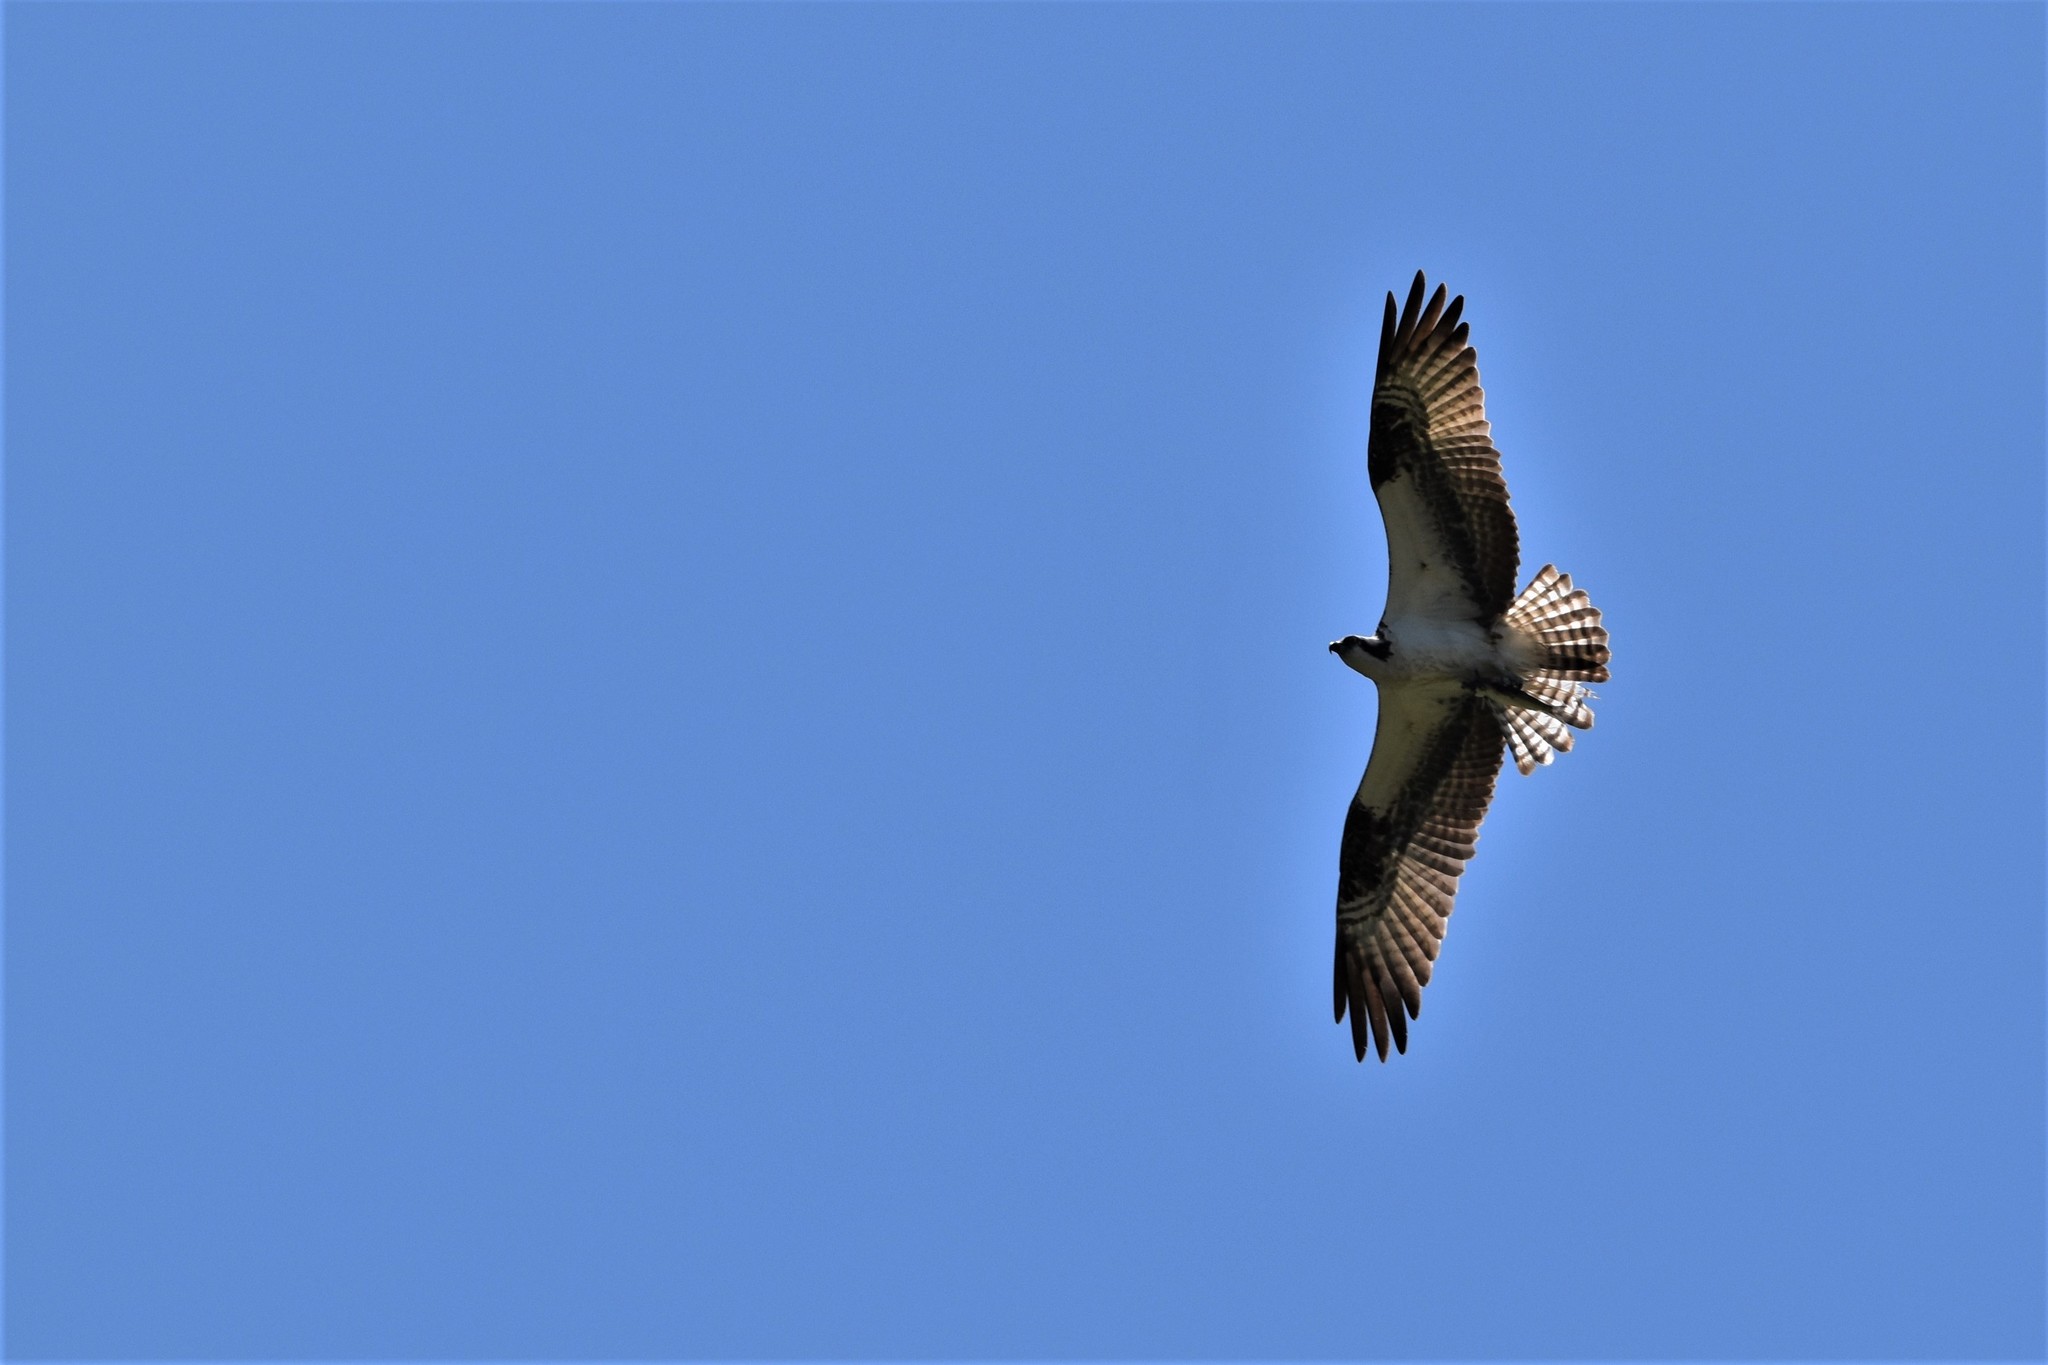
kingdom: Animalia
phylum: Chordata
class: Aves
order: Accipitriformes
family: Pandionidae
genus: Pandion
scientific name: Pandion haliaetus
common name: Osprey
